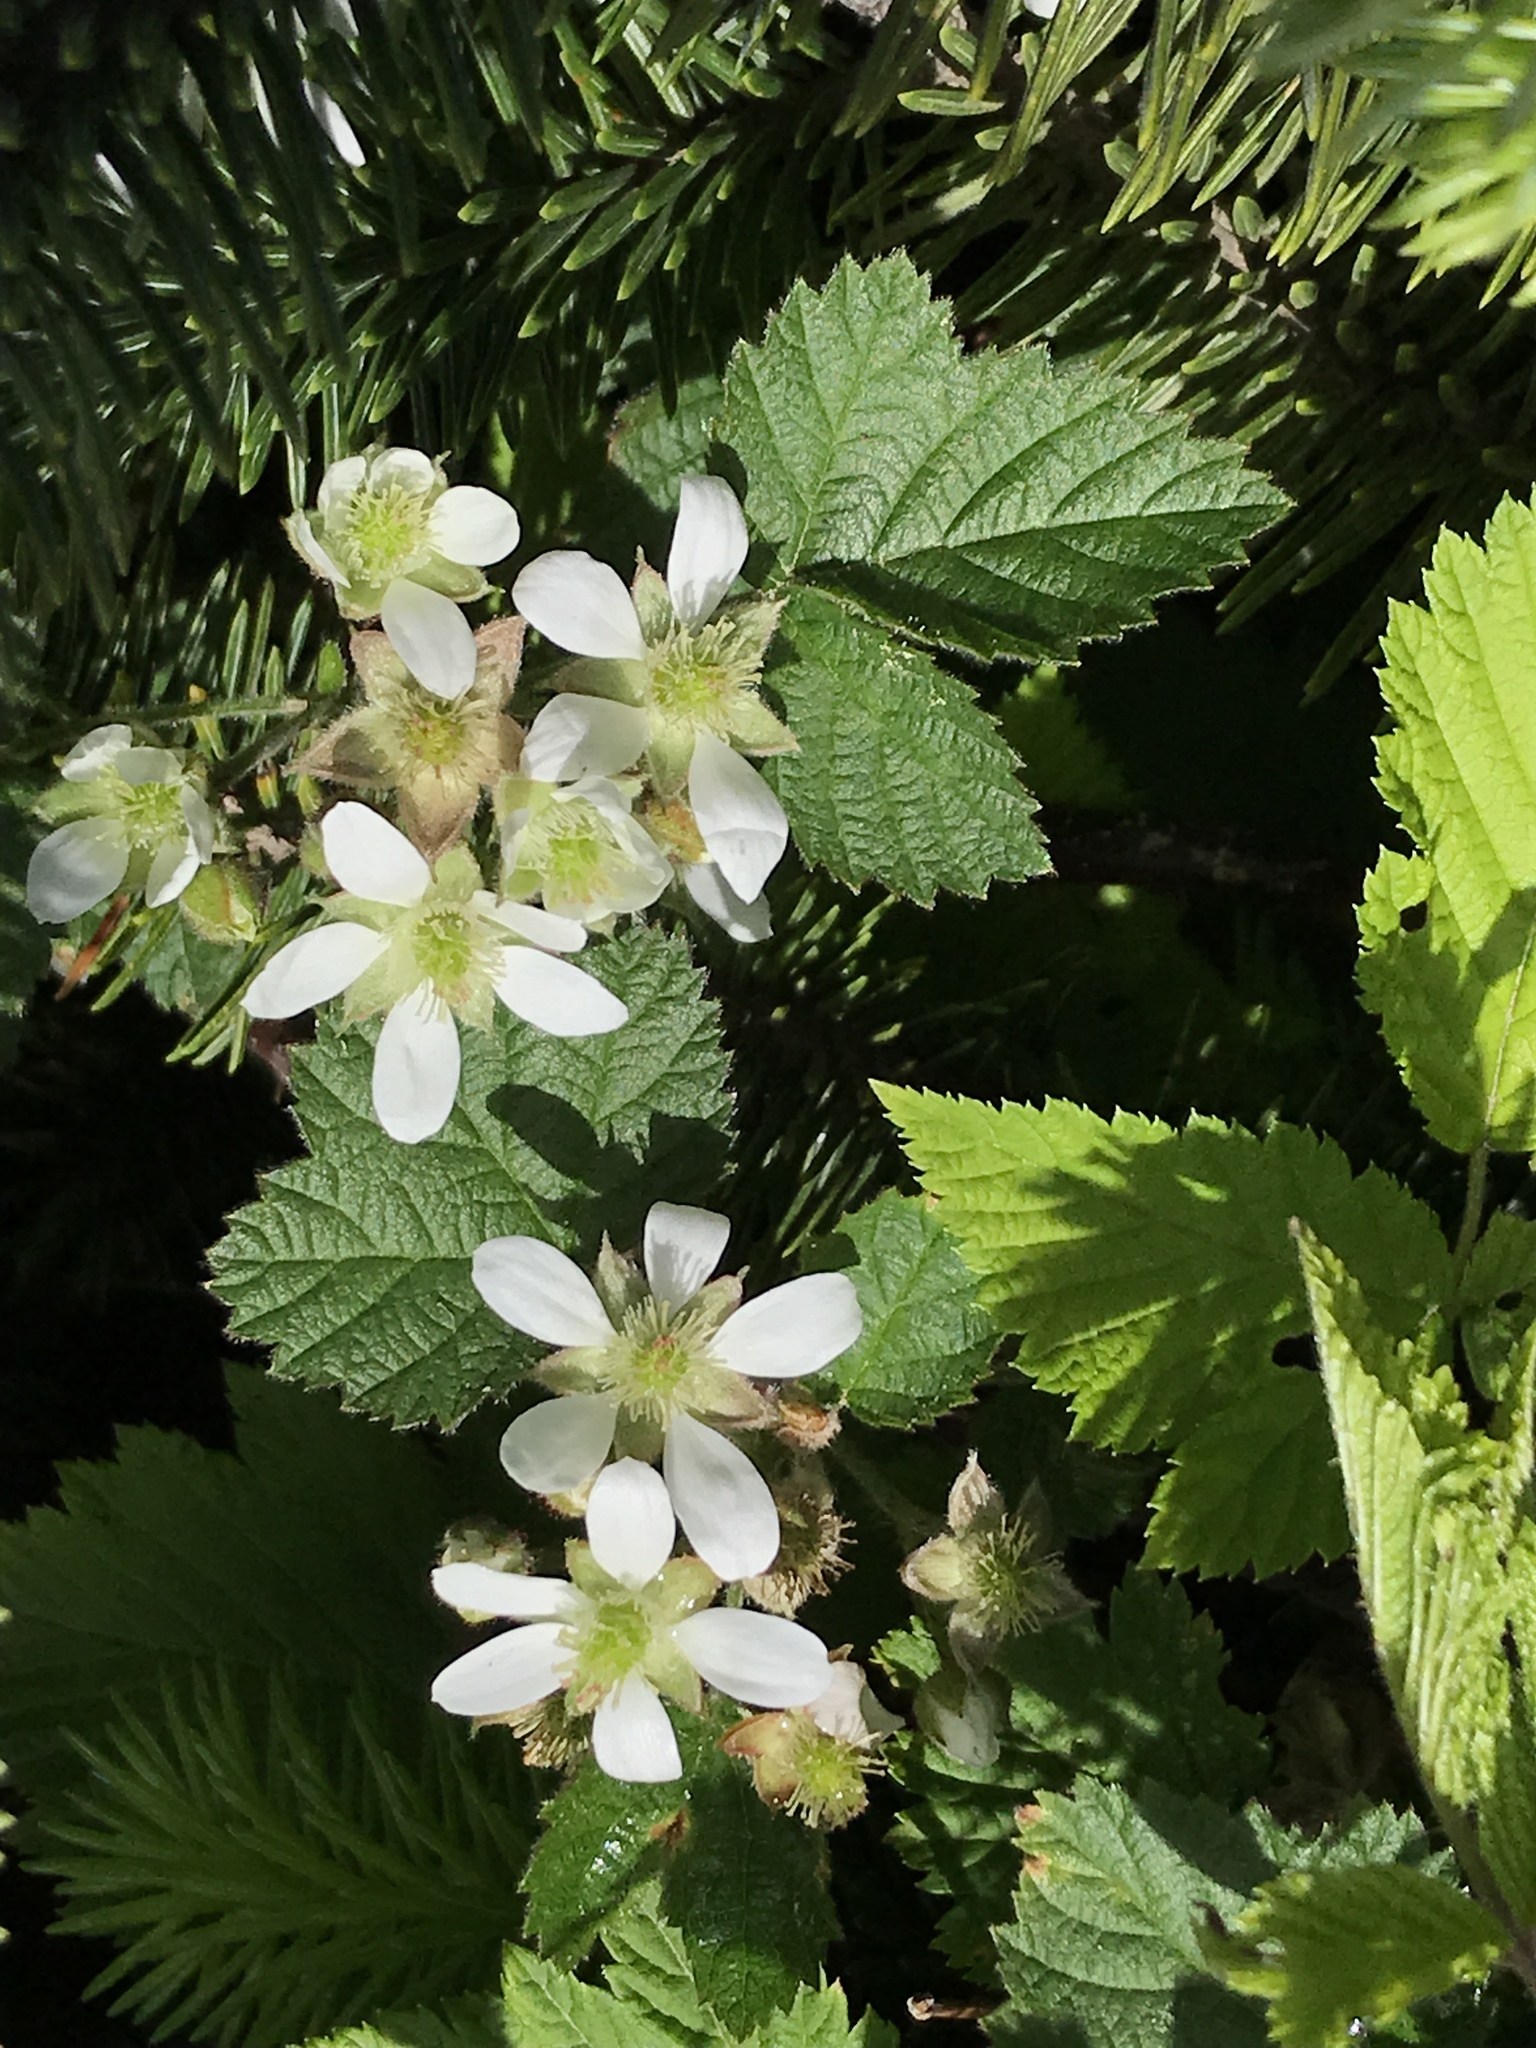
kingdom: Plantae
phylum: Tracheophyta
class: Magnoliopsida
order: Rosales
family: Rosaceae
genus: Rubus
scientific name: Rubus ursinus
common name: Pacific blackberry
